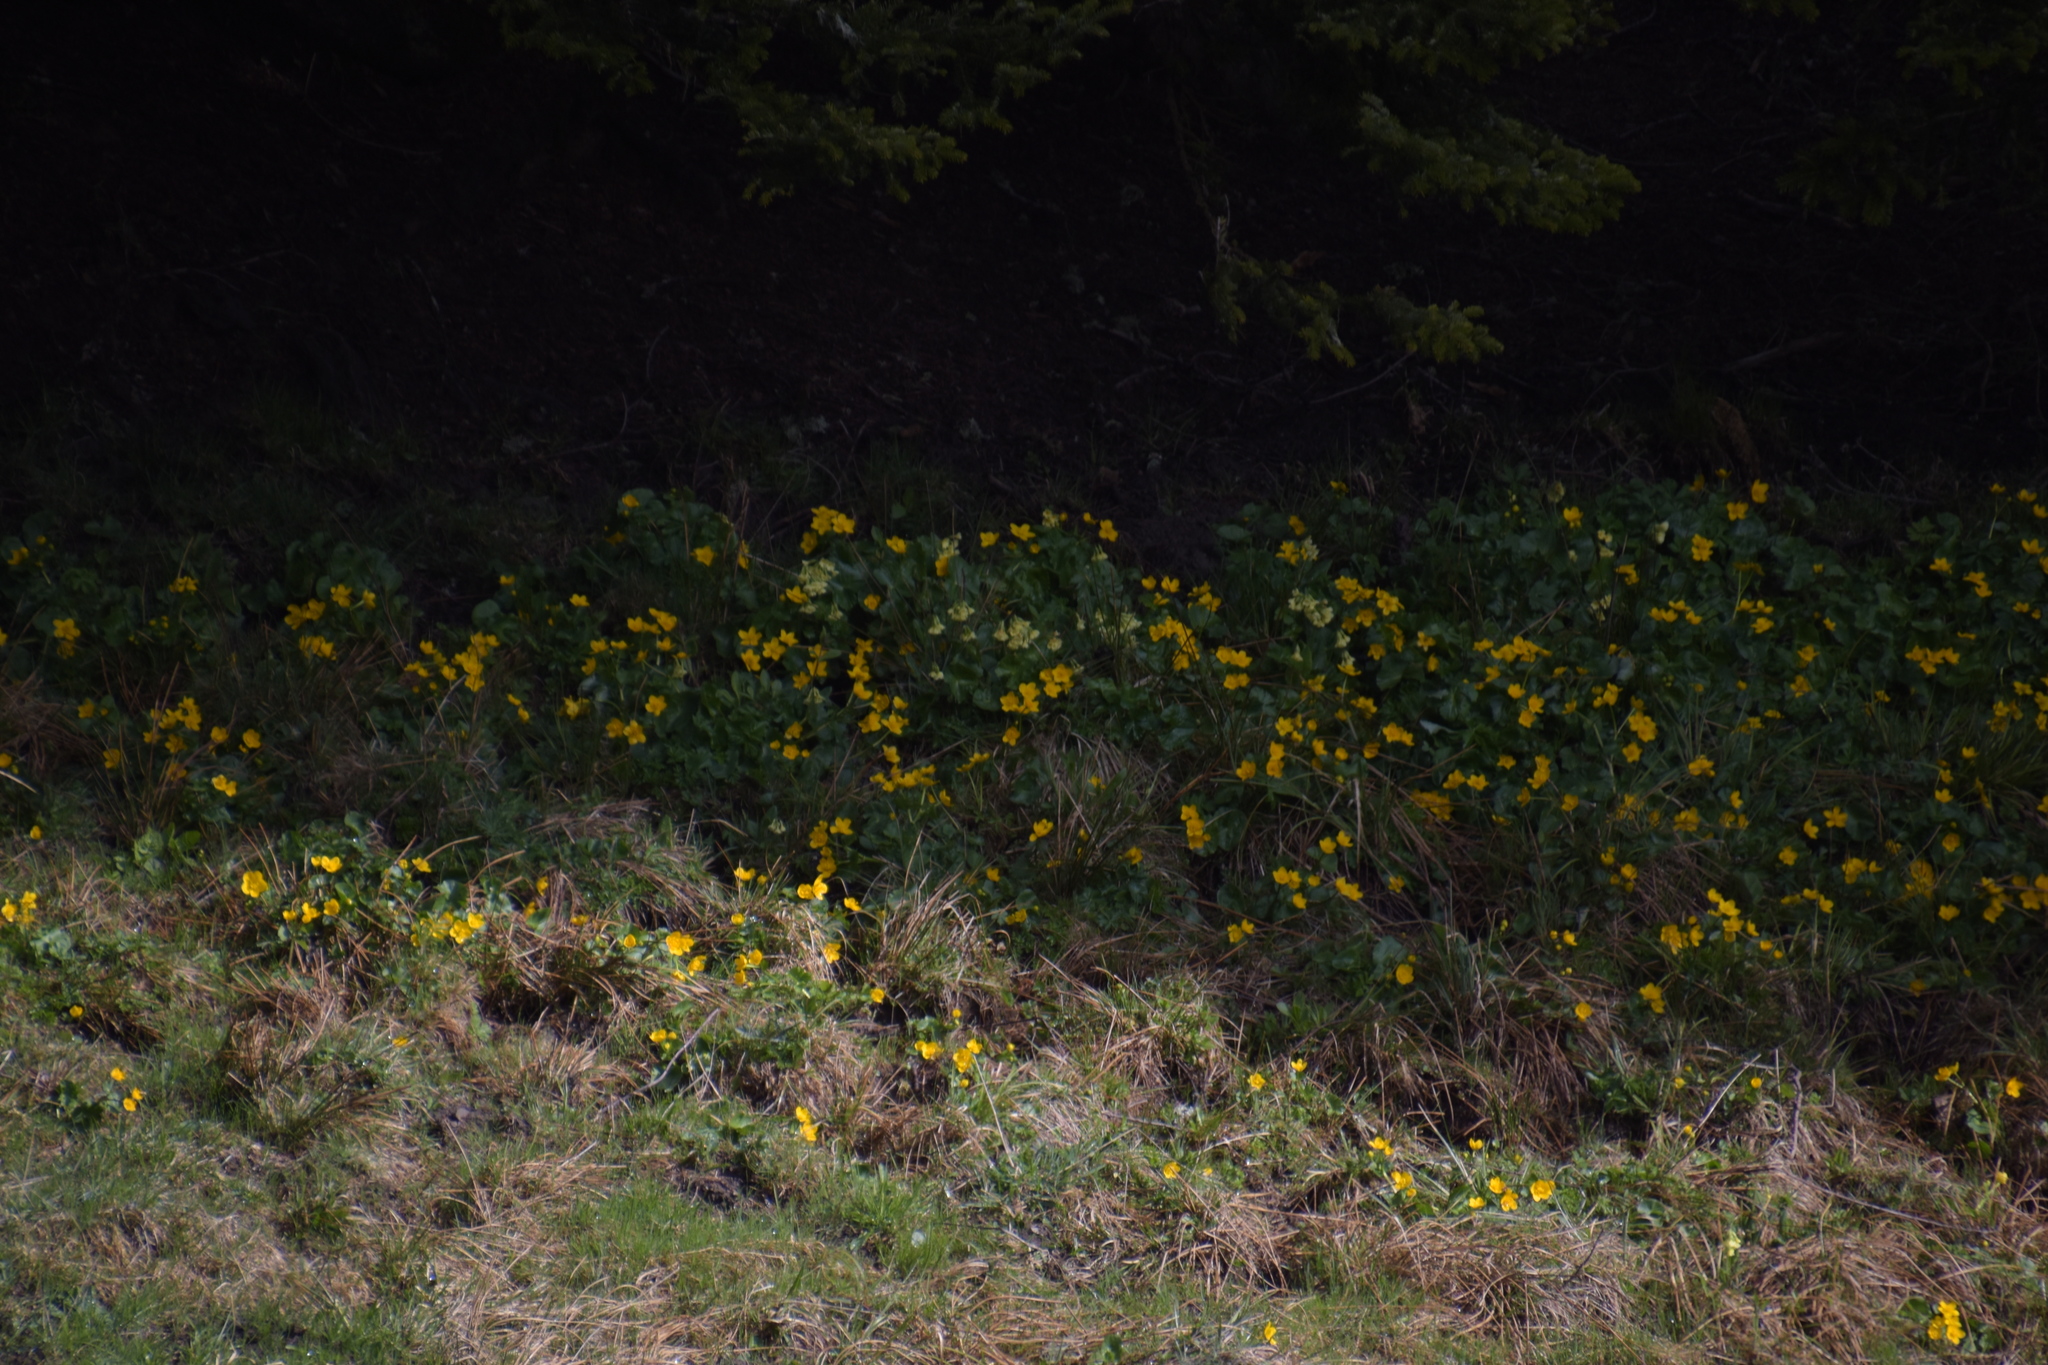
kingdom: Plantae
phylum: Tracheophyta
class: Magnoliopsida
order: Ranunculales
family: Ranunculaceae
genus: Caltha
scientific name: Caltha palustris
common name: Marsh marigold
